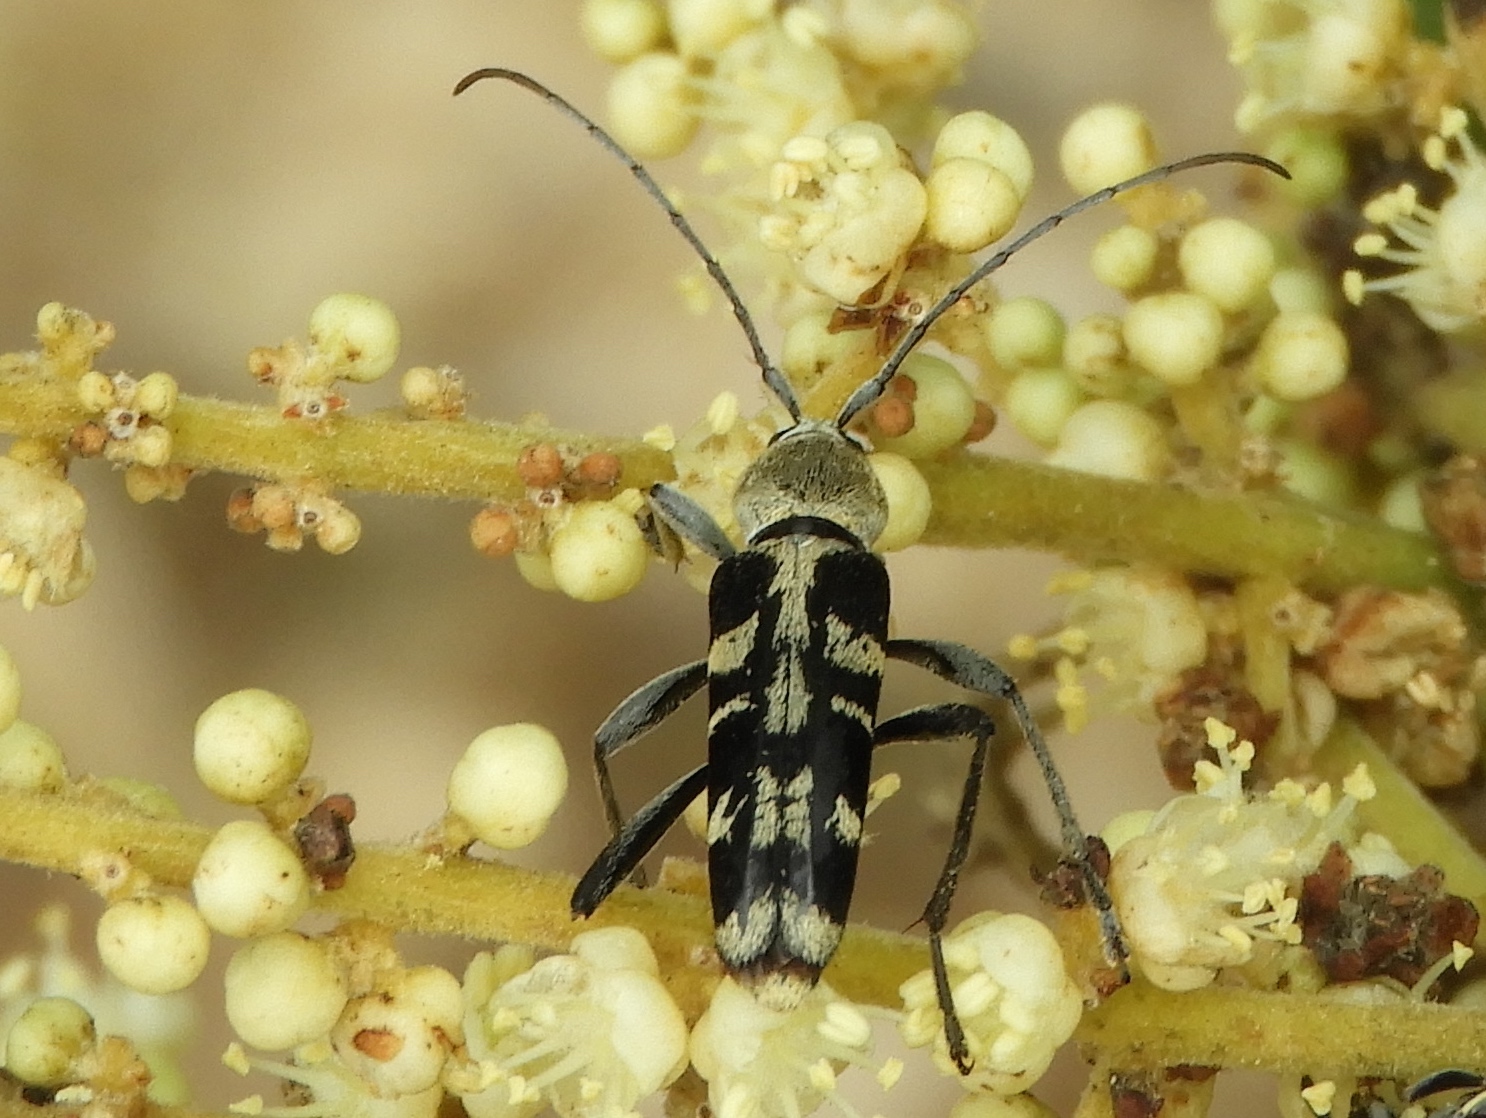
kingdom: Animalia
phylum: Arthropoda
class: Insecta
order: Coleoptera
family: Cerambycidae
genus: Tanyochraethes
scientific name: Tanyochraethes smithi
